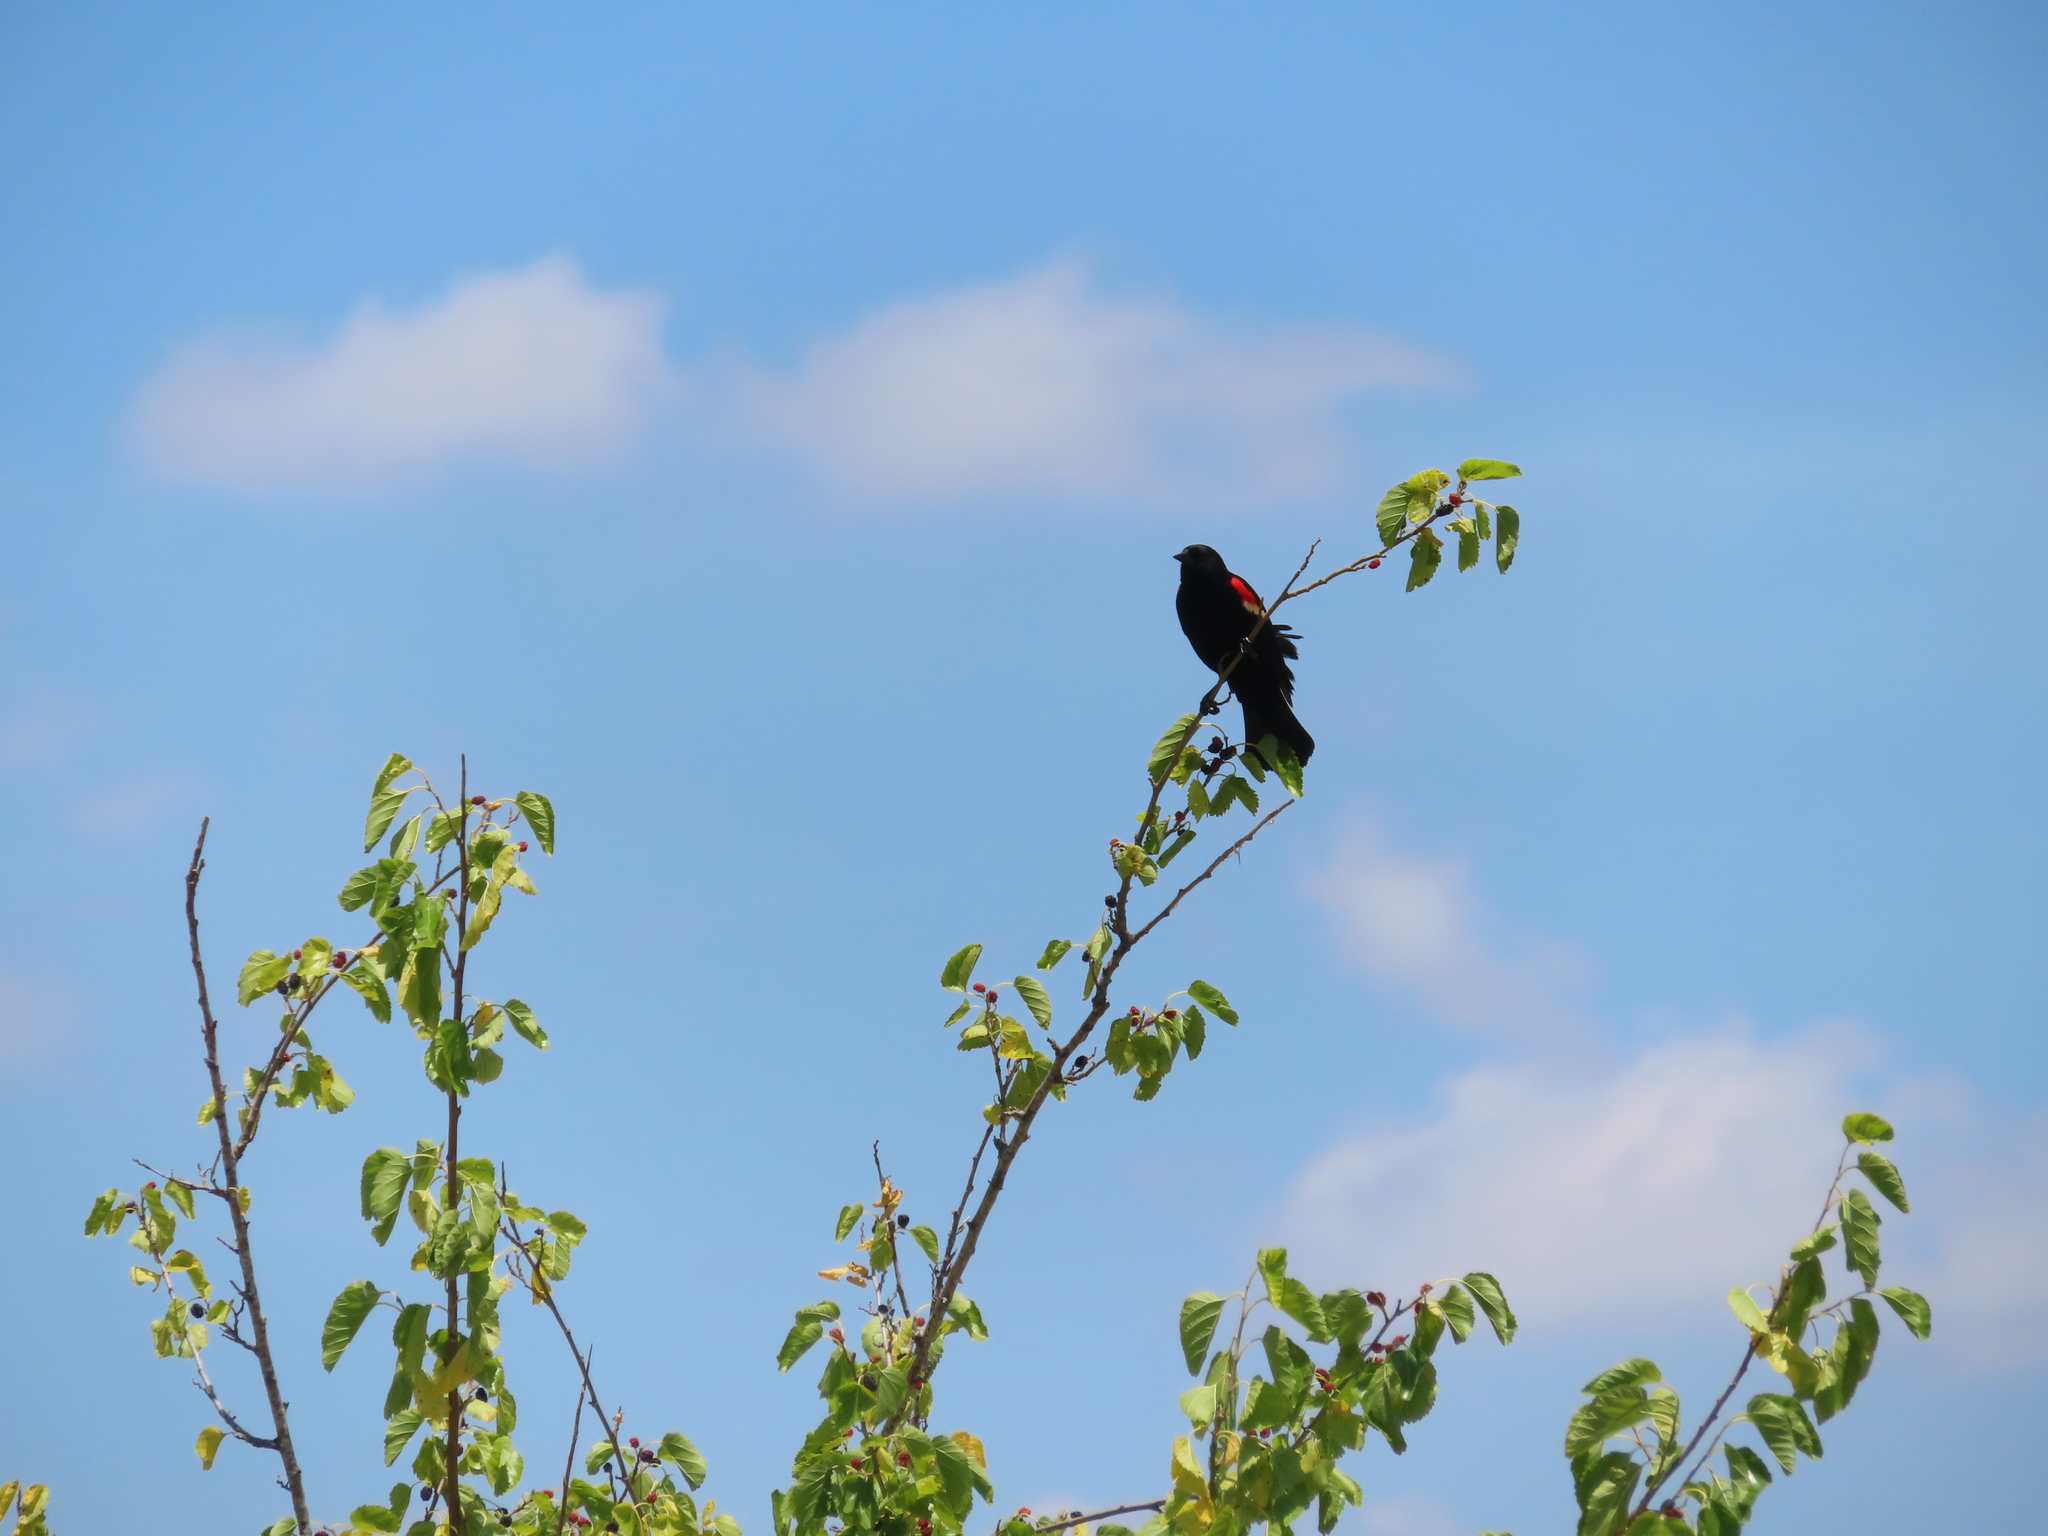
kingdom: Animalia
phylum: Chordata
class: Aves
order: Passeriformes
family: Icteridae
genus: Agelaius
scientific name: Agelaius phoeniceus
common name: Red-winged blackbird
